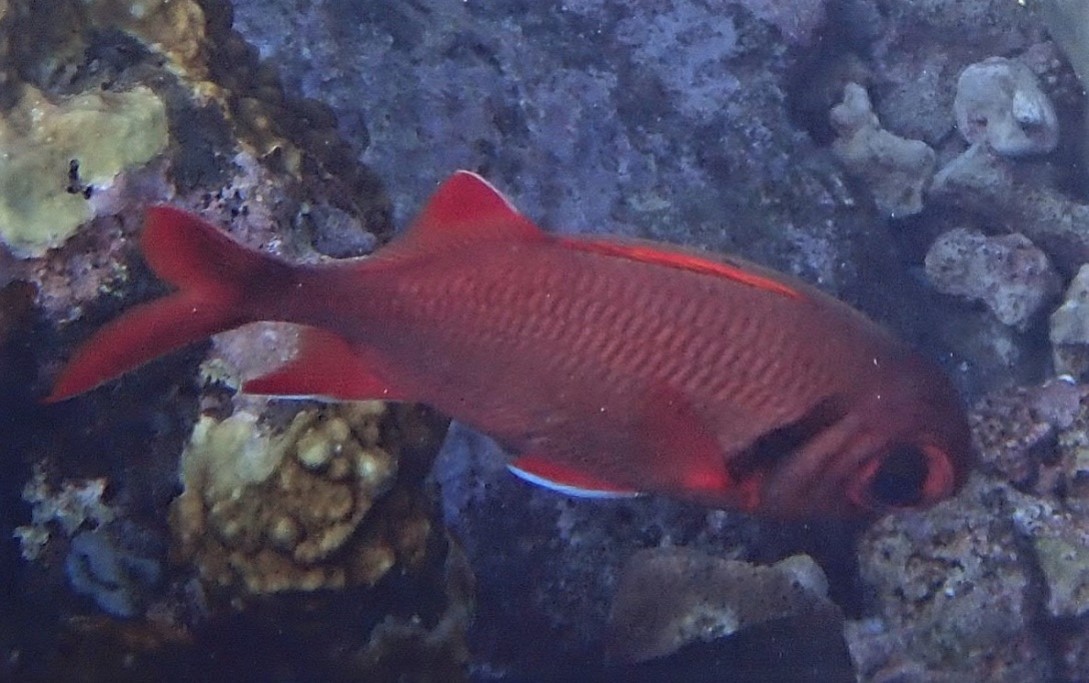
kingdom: Animalia
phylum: Chordata
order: Beryciformes
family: Holocentridae
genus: Myripristis
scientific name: Myripristis kuntee
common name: Epaulette soldierfish
